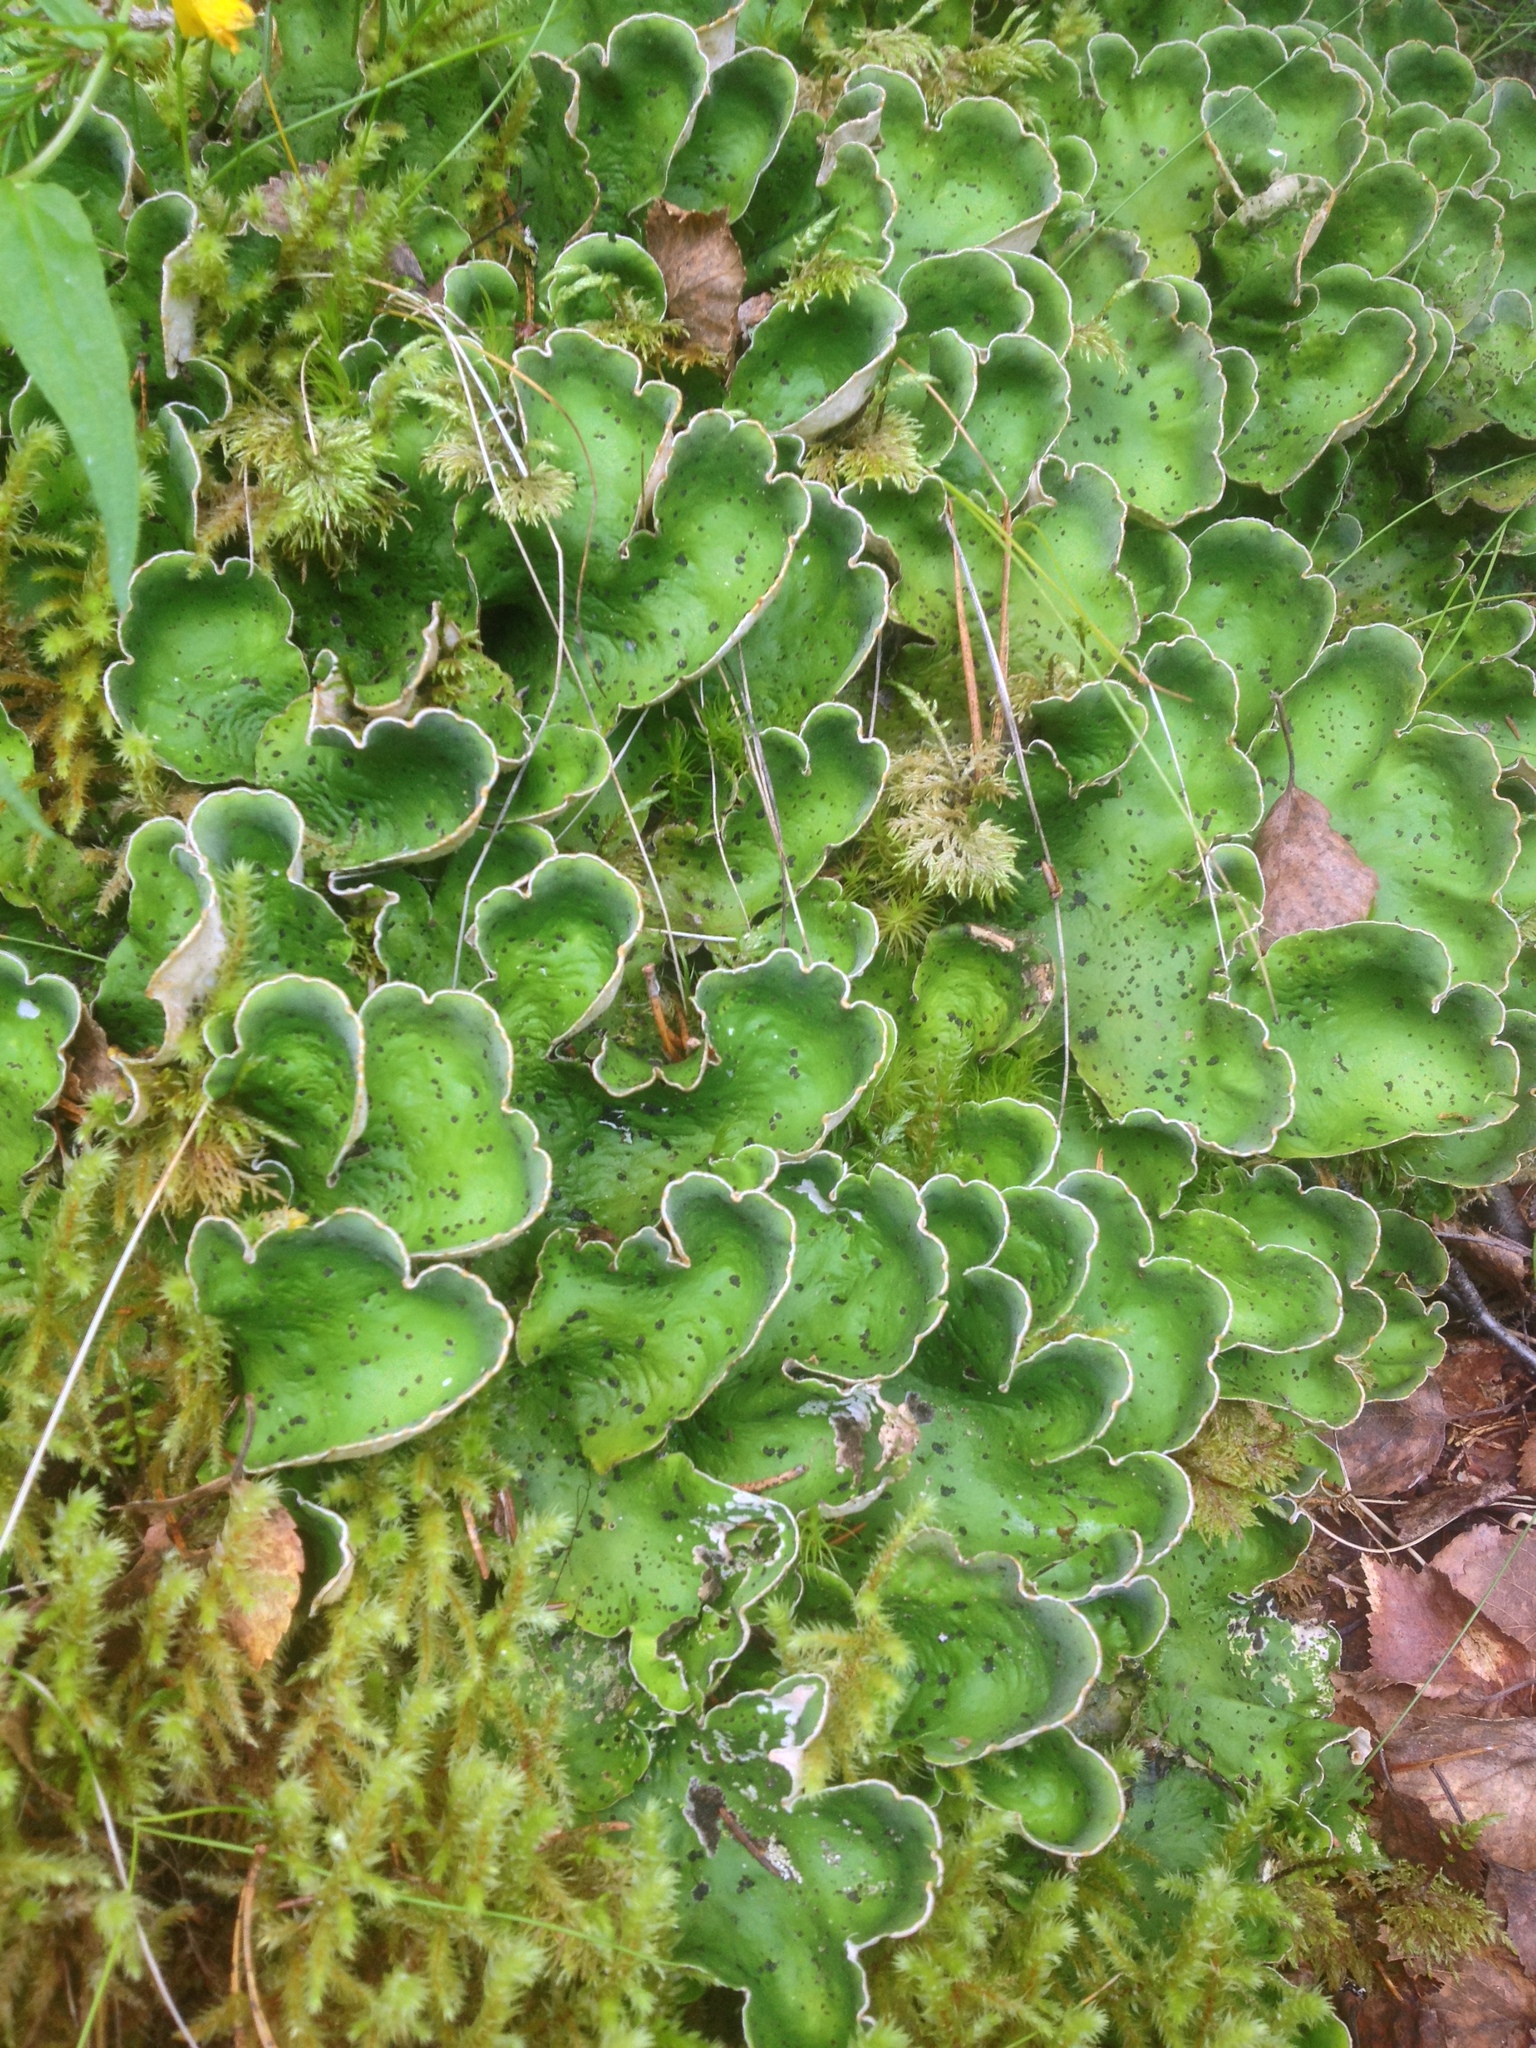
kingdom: Fungi
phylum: Ascomycota
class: Lecanoromycetes
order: Peltigerales
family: Peltigeraceae
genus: Peltigera
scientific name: Peltigera aphthosa
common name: Common freckle pelt lichen
